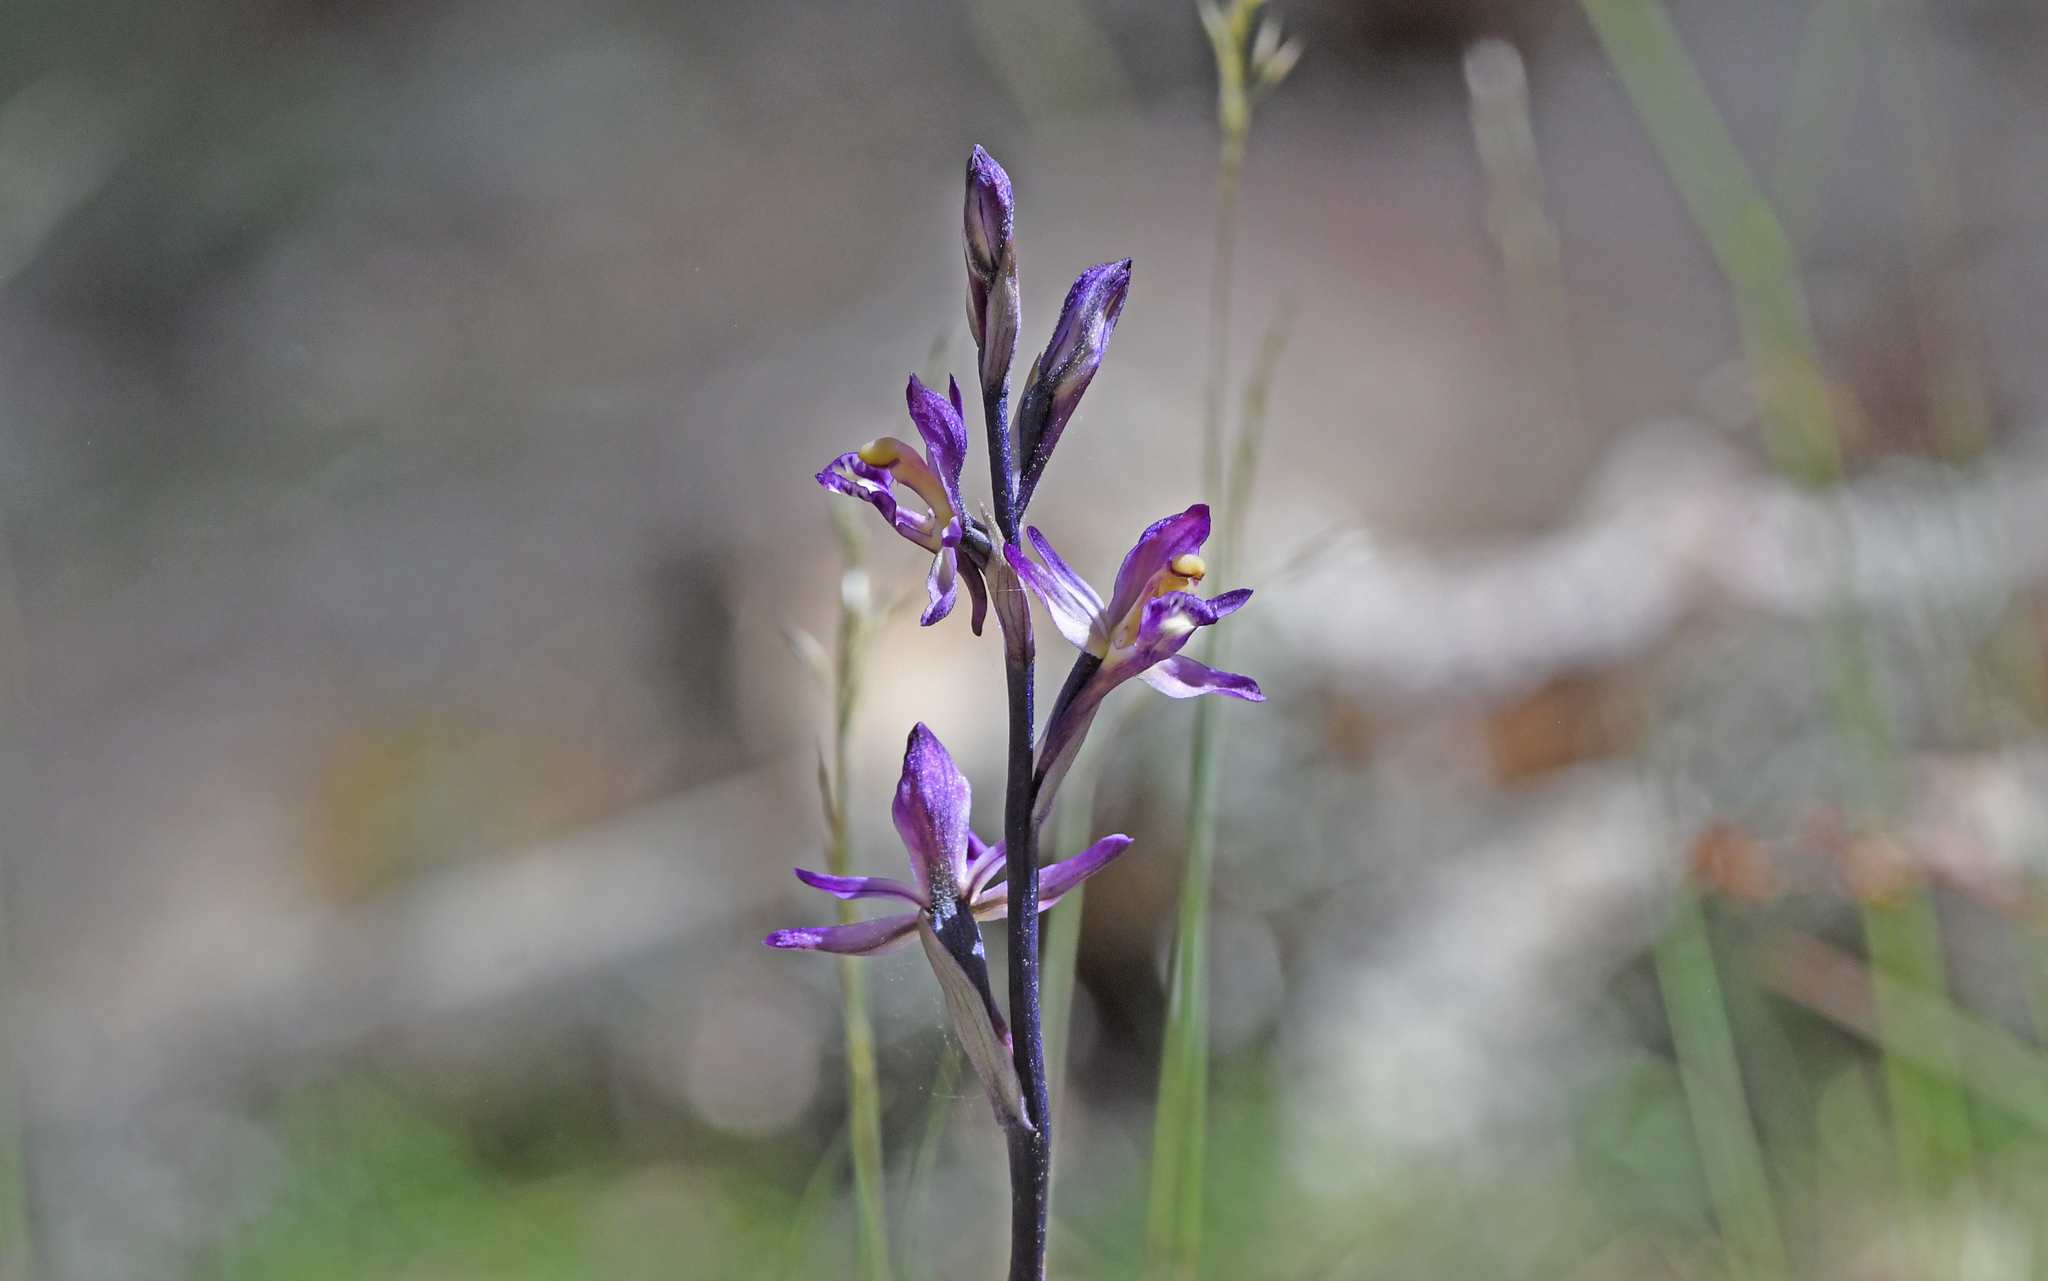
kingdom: Plantae
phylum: Tracheophyta
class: Liliopsida
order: Asparagales
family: Orchidaceae
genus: Limodorum
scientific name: Limodorum abortivum
